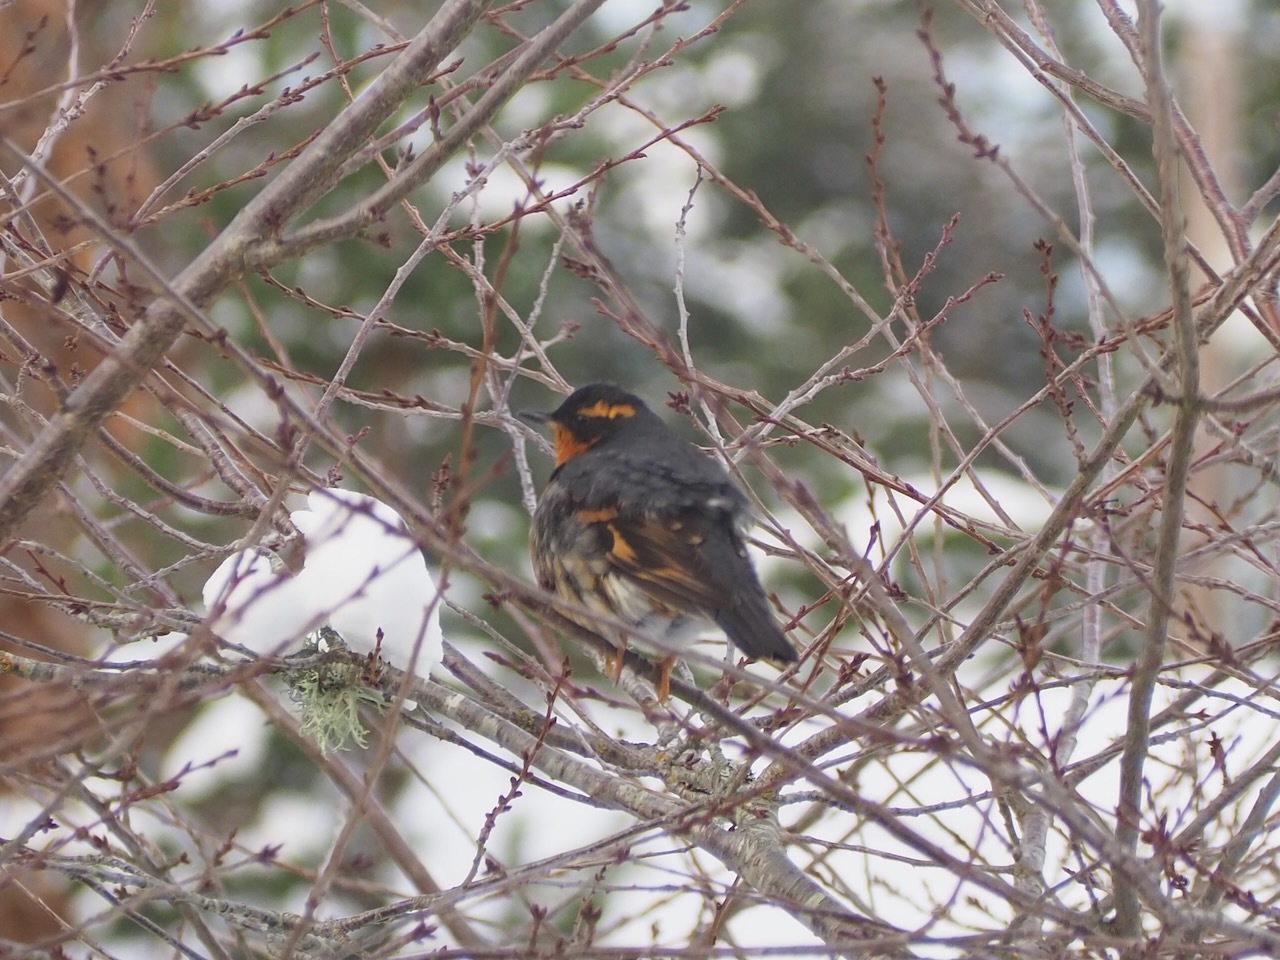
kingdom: Animalia
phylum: Chordata
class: Aves
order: Passeriformes
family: Turdidae
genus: Ixoreus
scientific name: Ixoreus naevius
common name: Varied thrush
